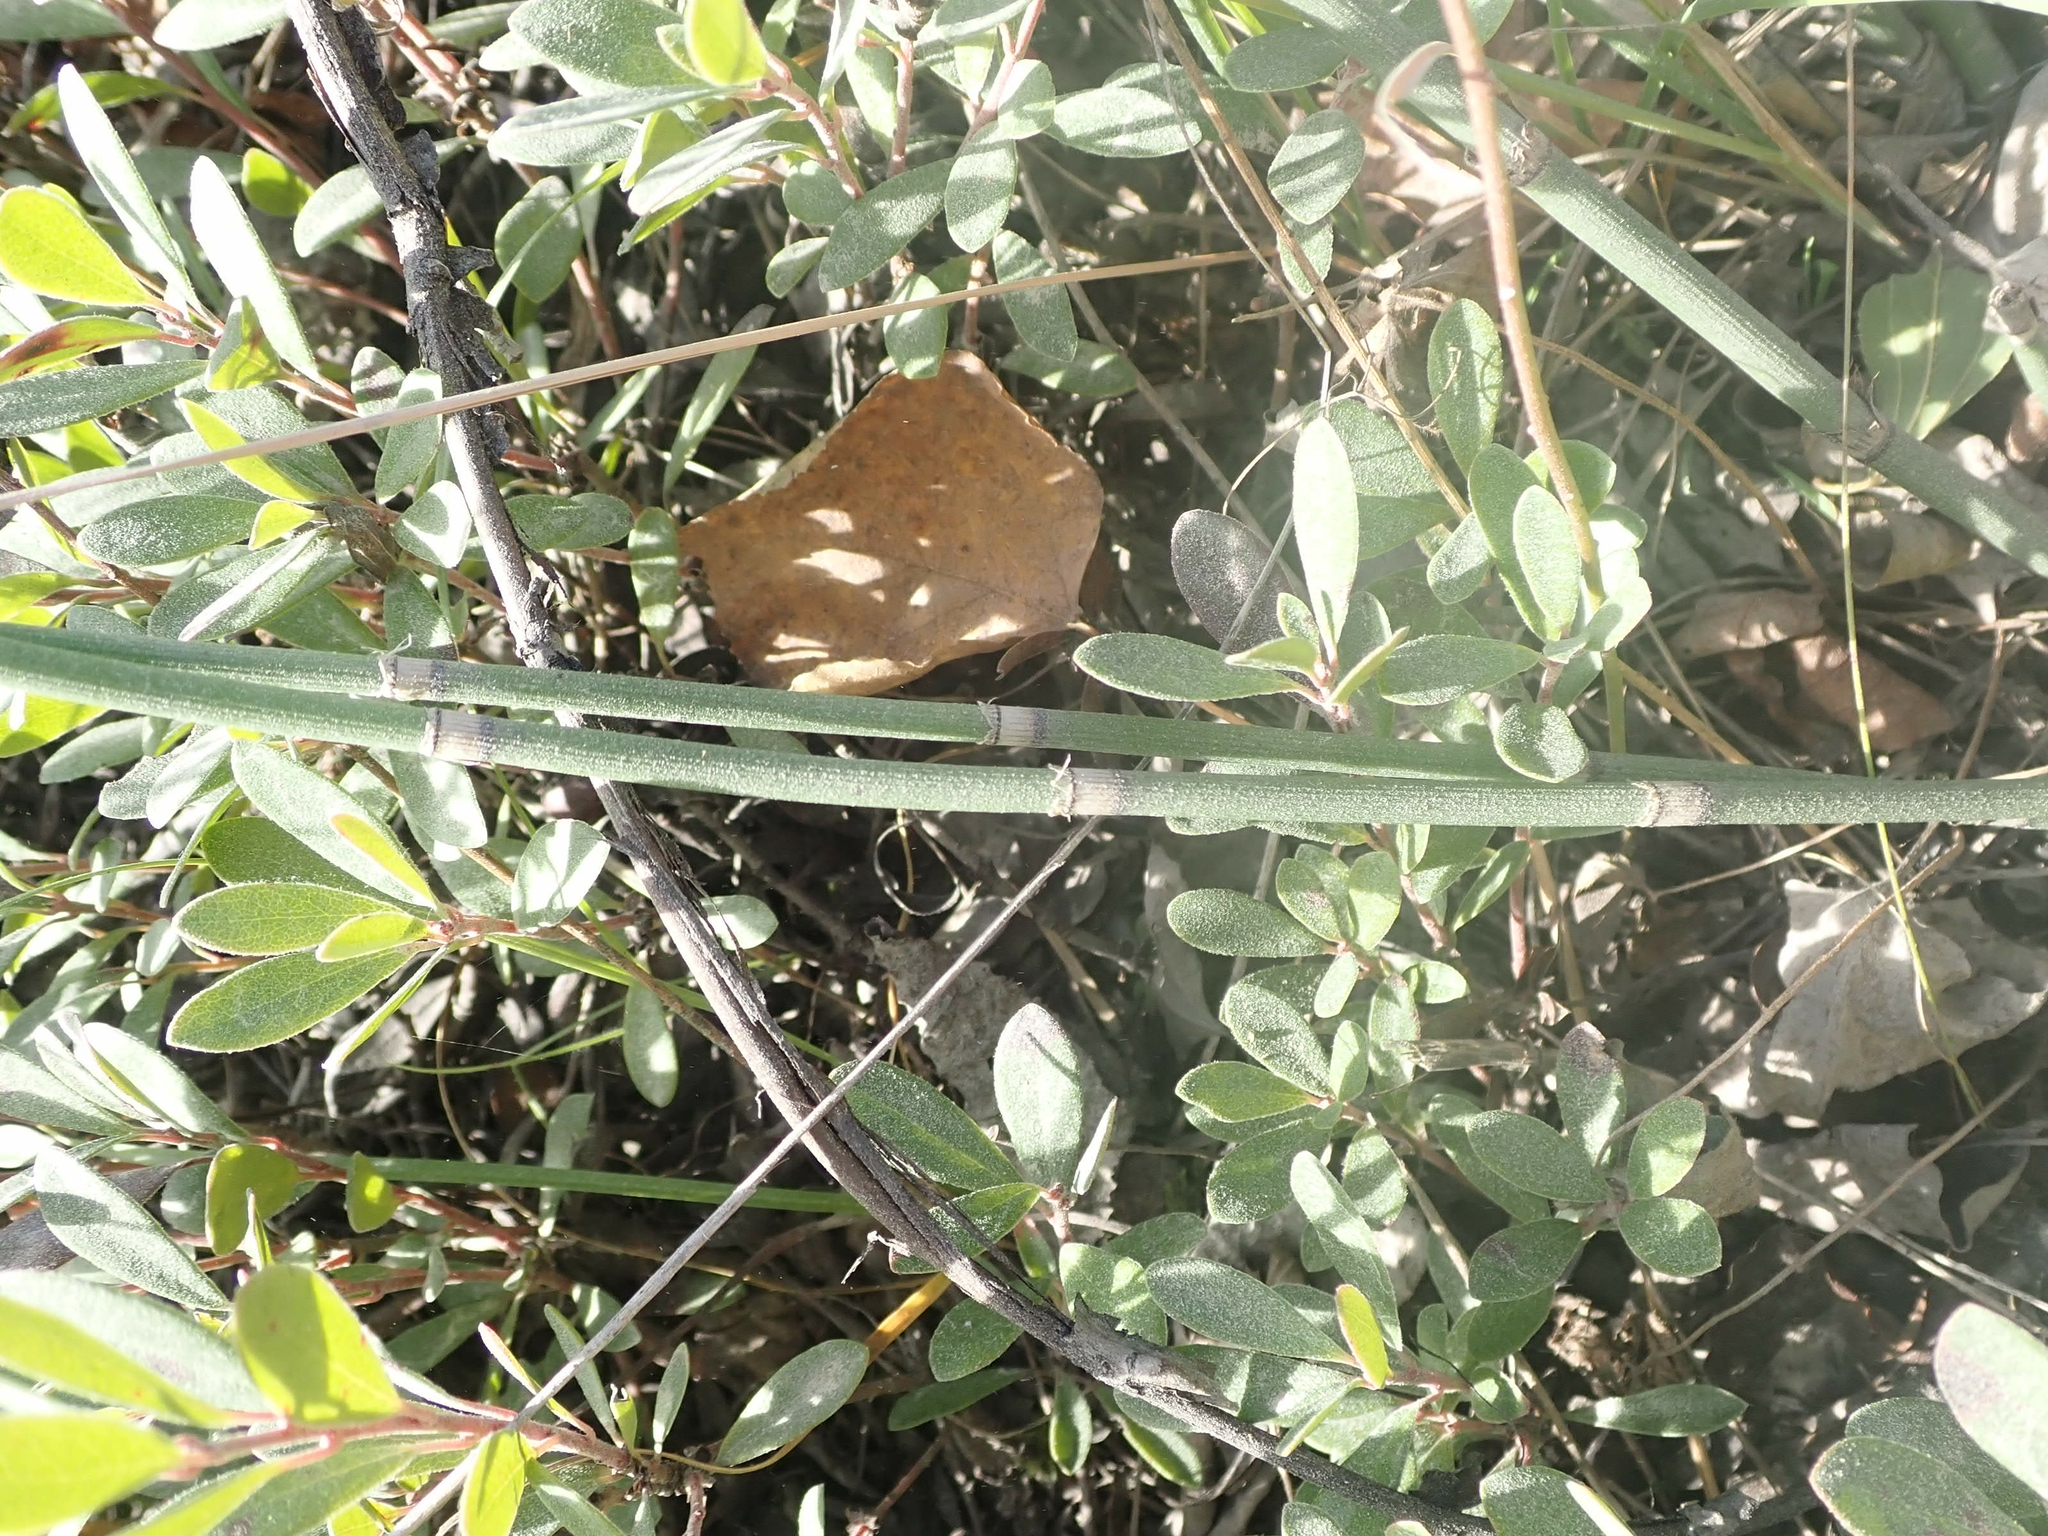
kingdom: Plantae
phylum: Tracheophyta
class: Polypodiopsida
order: Equisetales
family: Equisetaceae
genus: Equisetum
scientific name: Equisetum praealtum
